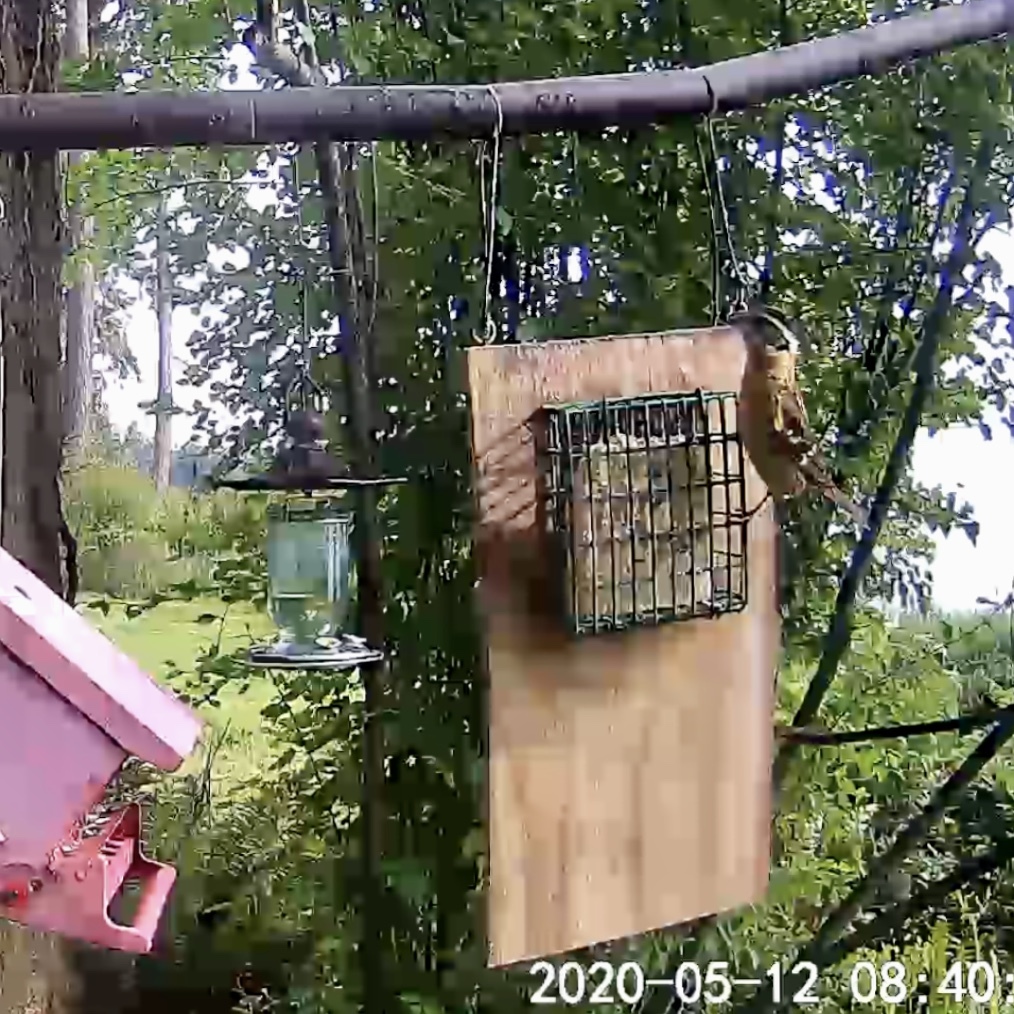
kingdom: Animalia
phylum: Chordata
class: Aves
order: Passeriformes
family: Cardinalidae
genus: Pheucticus
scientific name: Pheucticus melanocephalus
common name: Black-headed grosbeak
